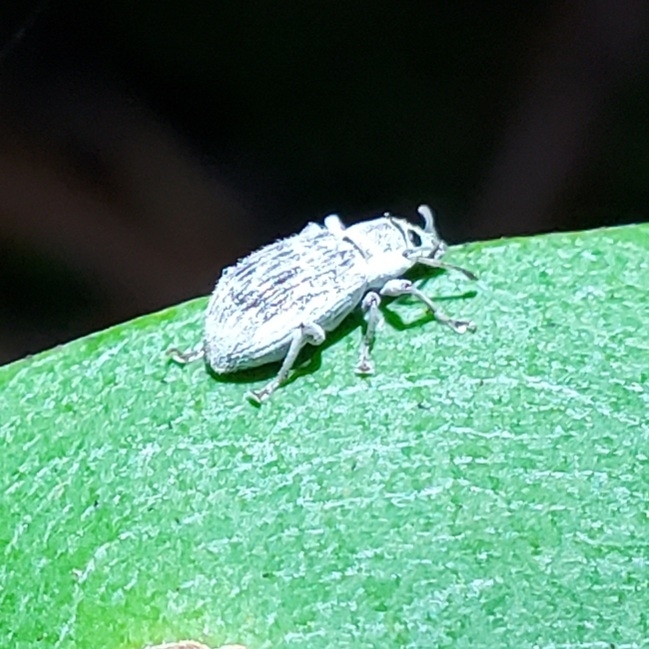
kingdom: Animalia
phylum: Arthropoda
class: Insecta
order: Coleoptera
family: Curculionidae
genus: Cyrtepistomus
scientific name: Cyrtepistomus castaneus
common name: Weevil
